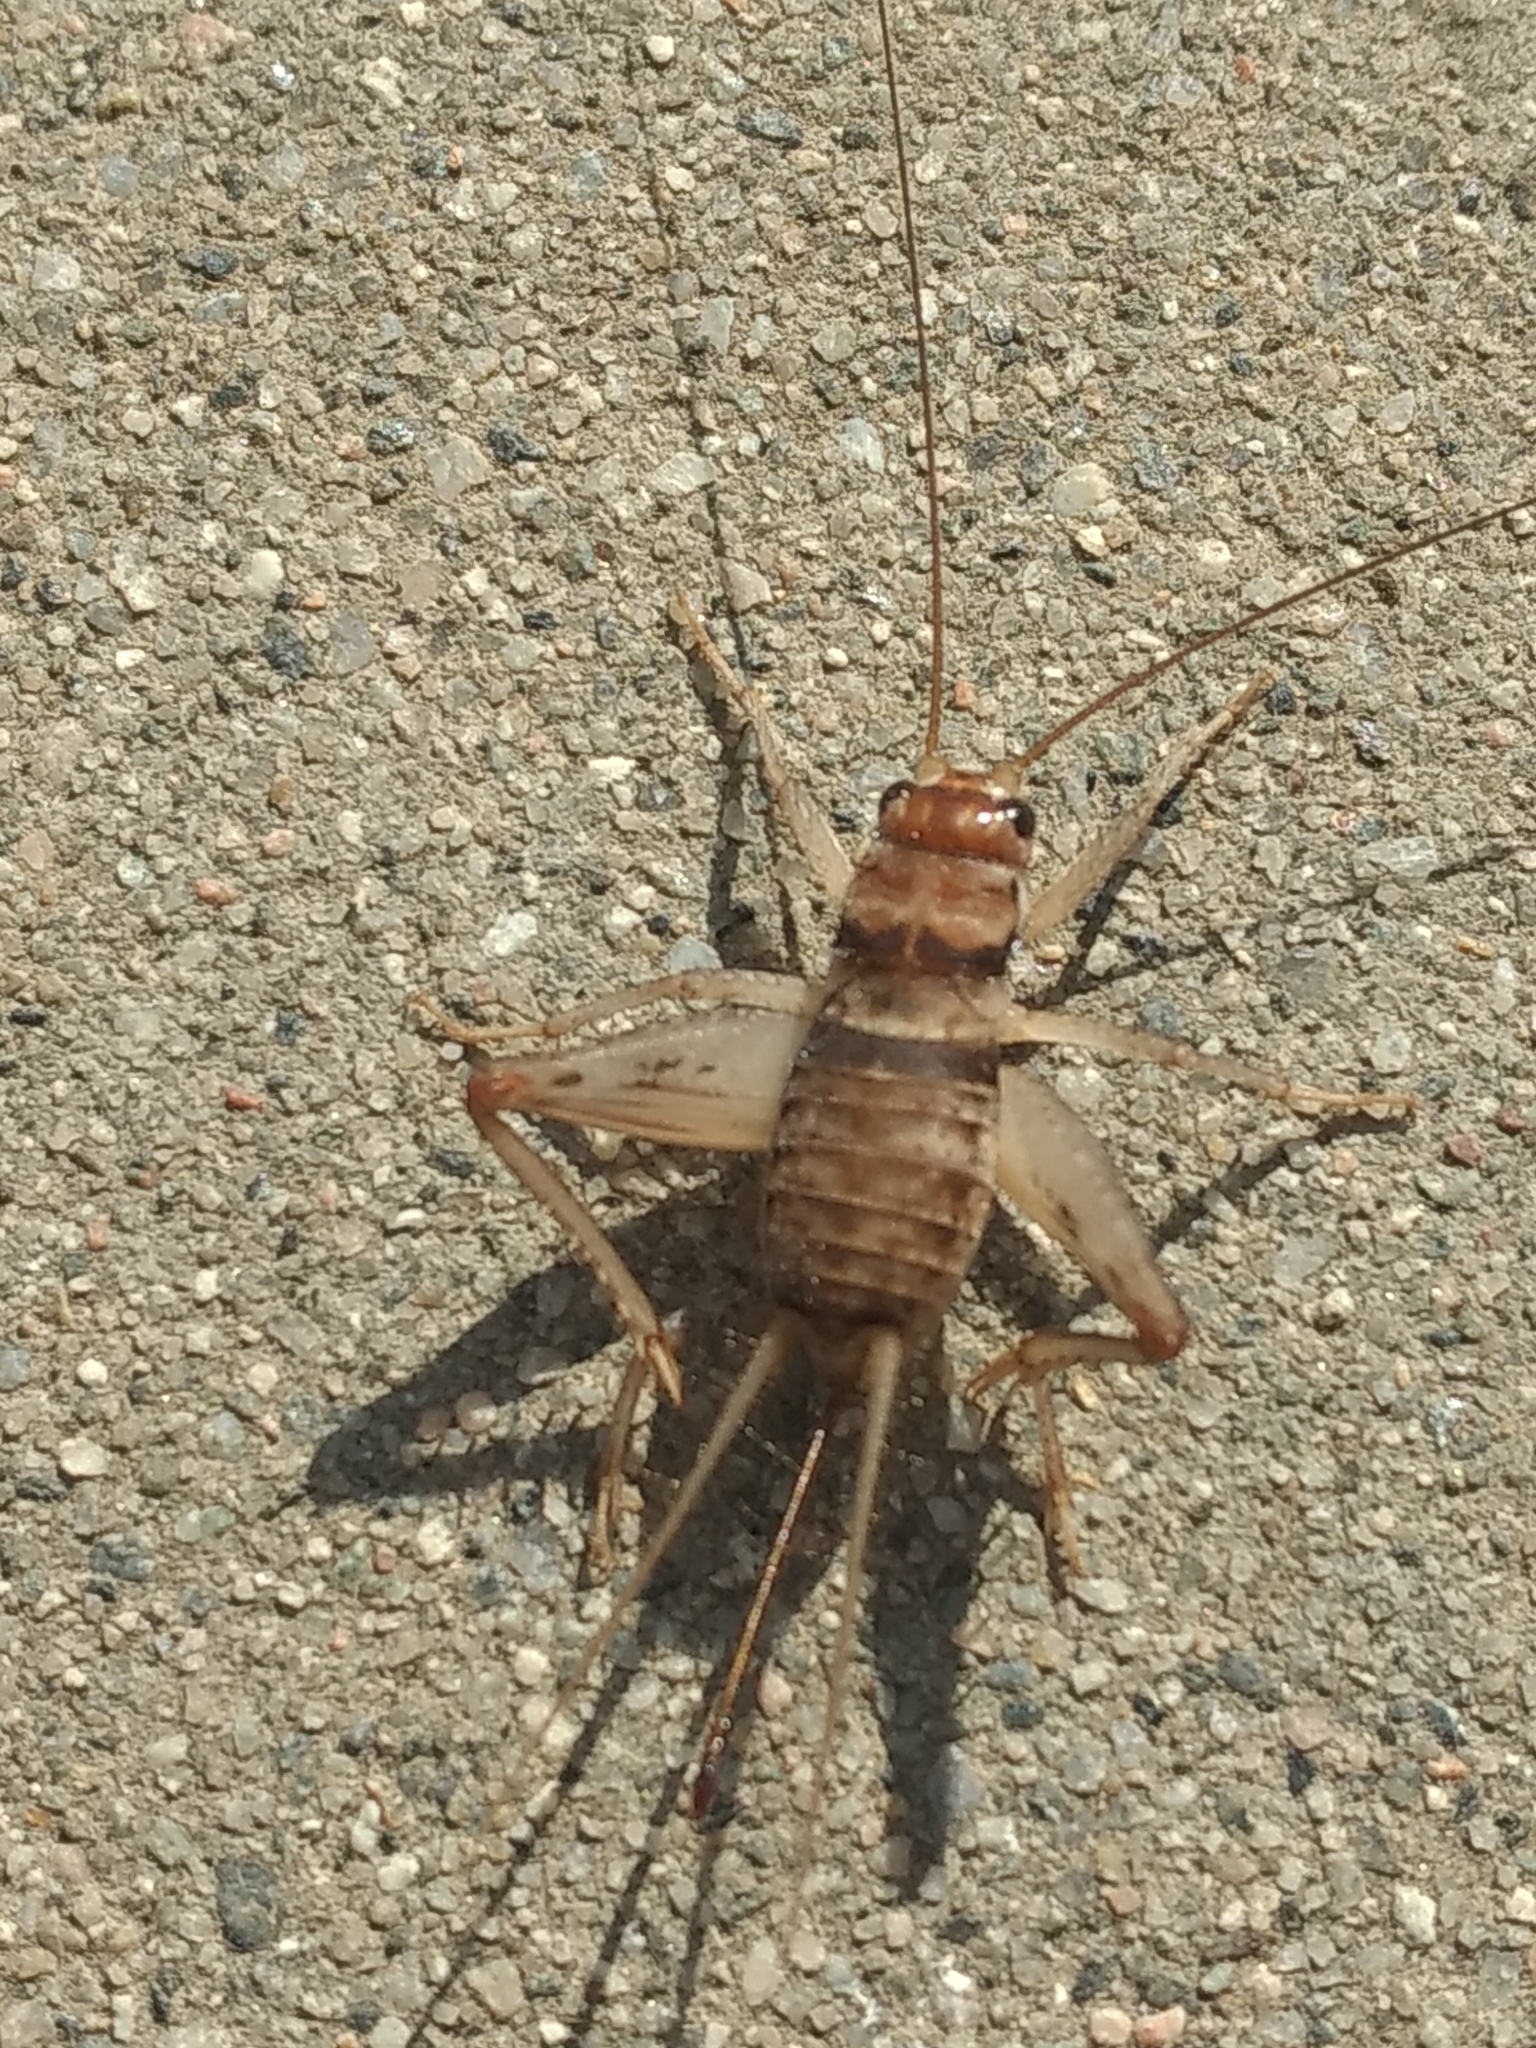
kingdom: Animalia
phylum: Arthropoda
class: Insecta
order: Orthoptera
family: Gryllidae
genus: Gryllodes
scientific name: Gryllodes sigillatus
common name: Tropical house cricket
